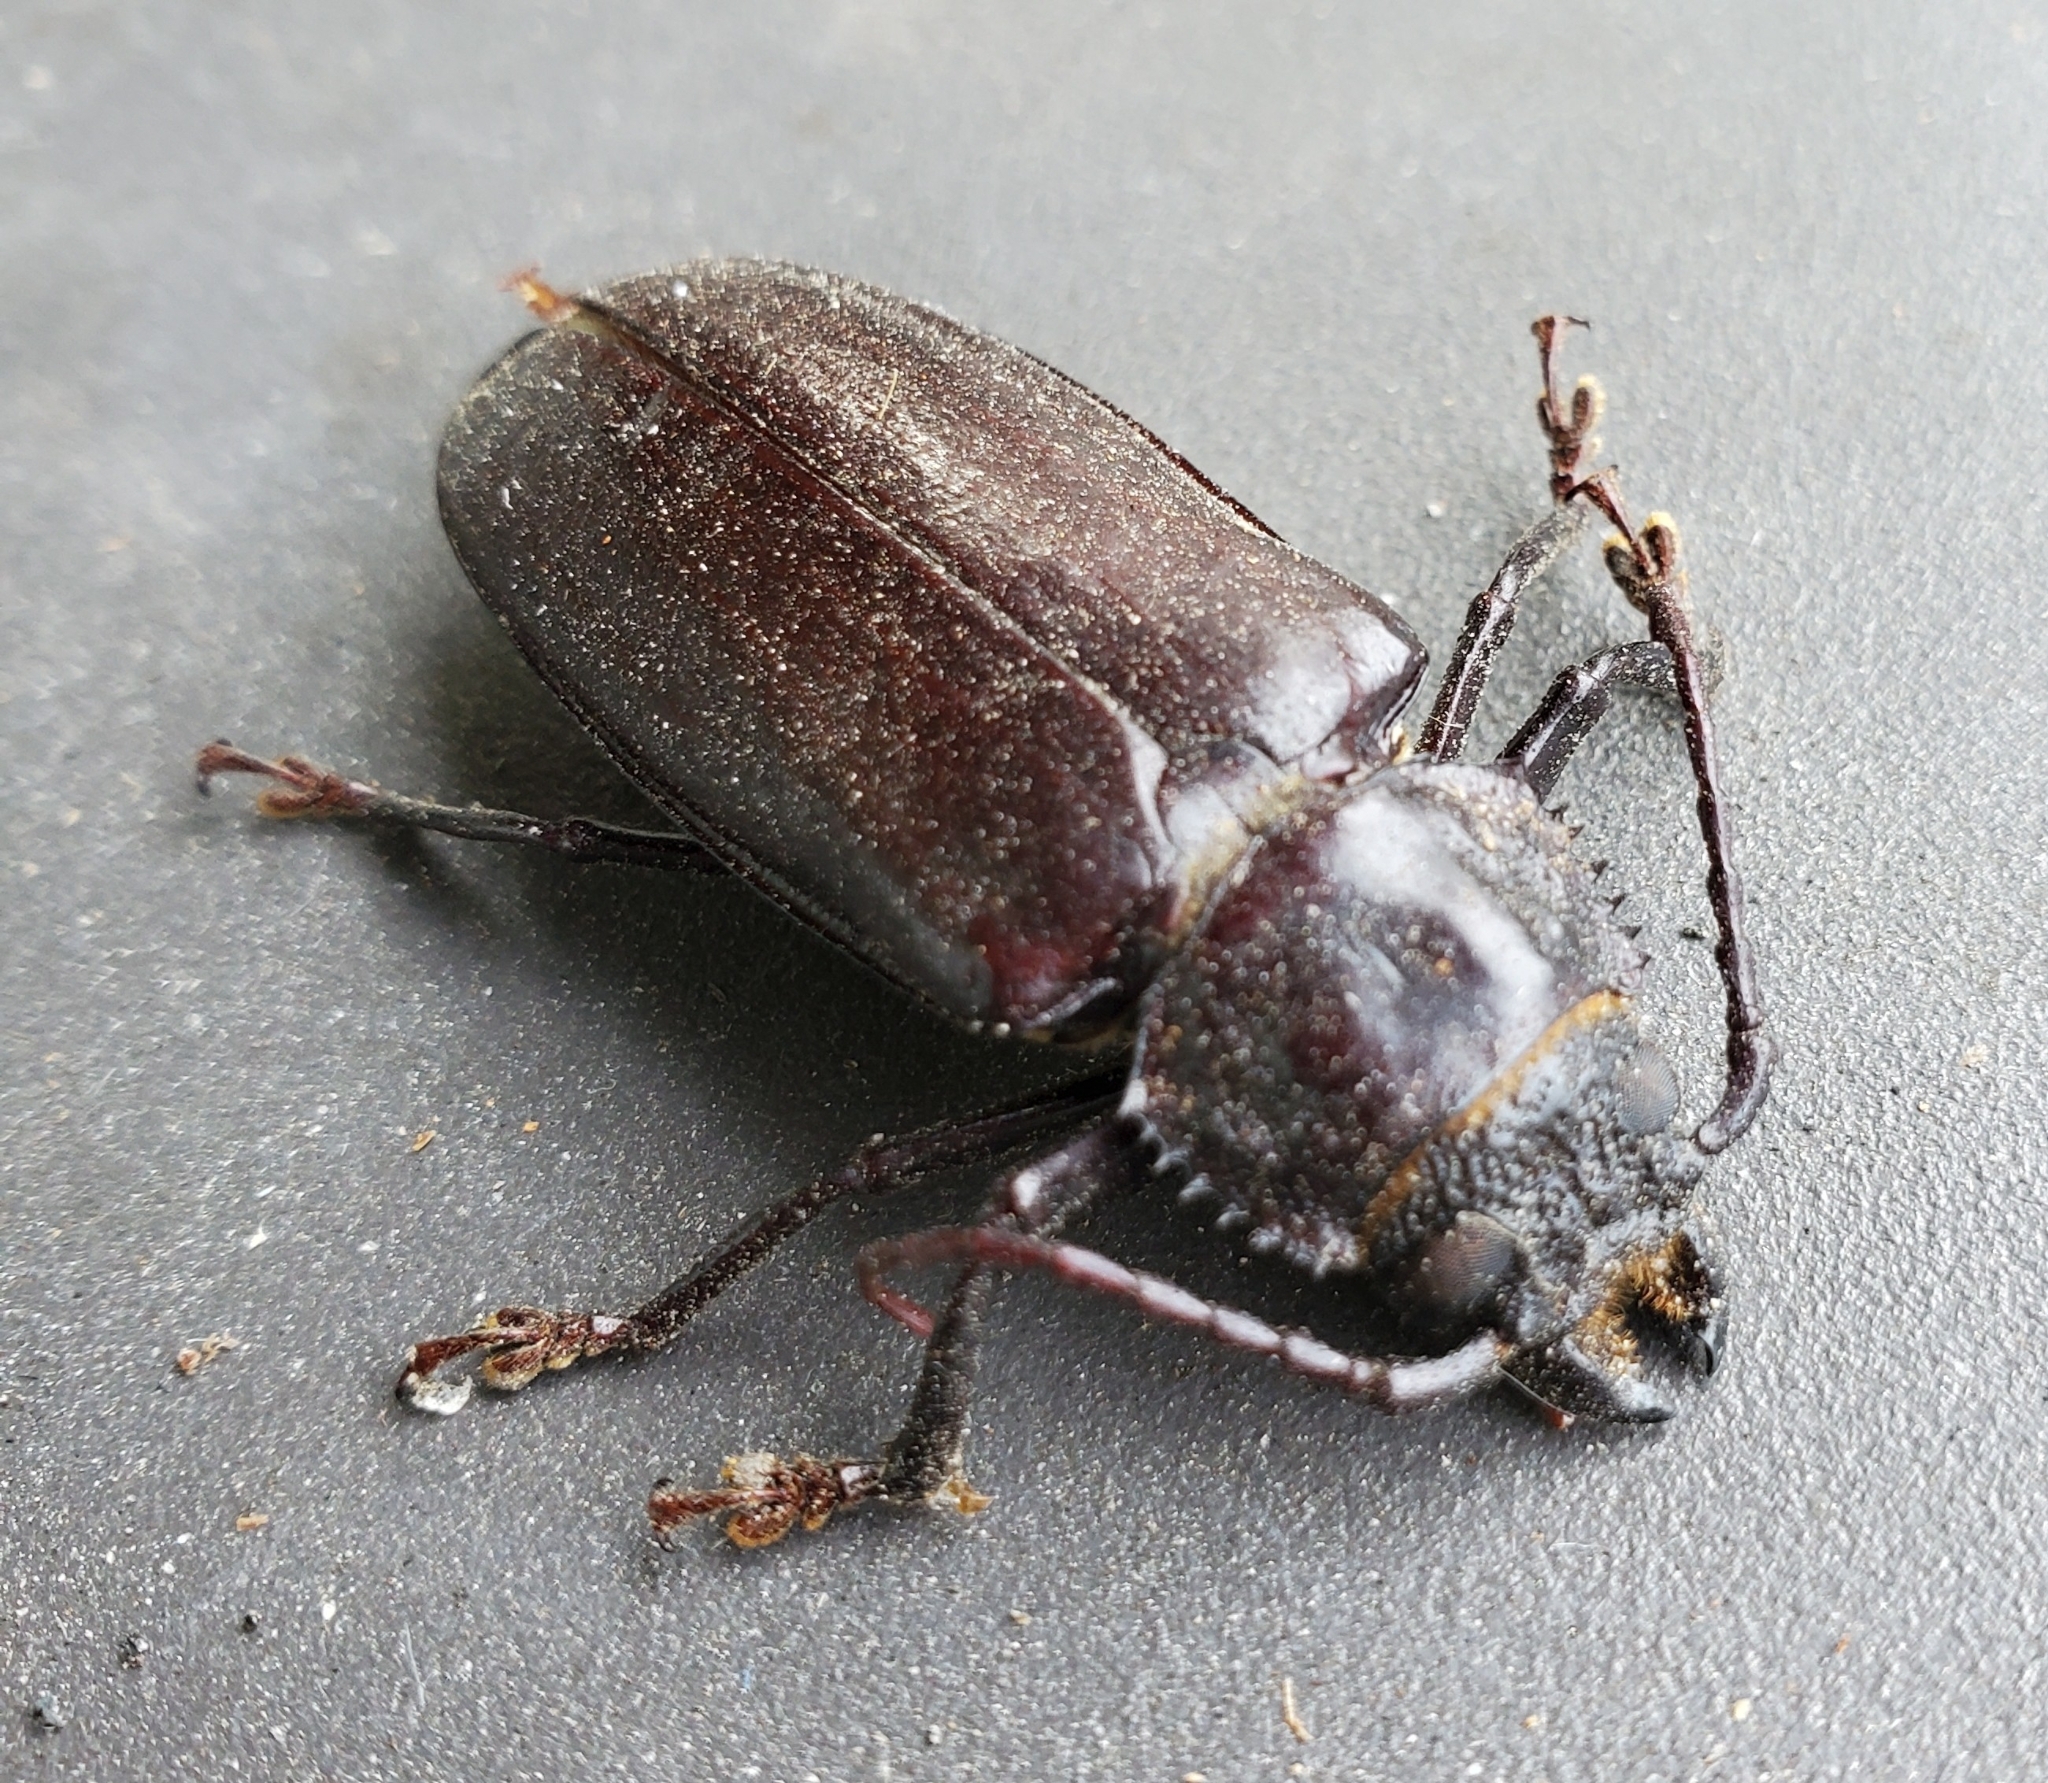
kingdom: Animalia
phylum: Arthropoda
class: Insecta
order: Coleoptera
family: Cerambycidae
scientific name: Cerambycidae
